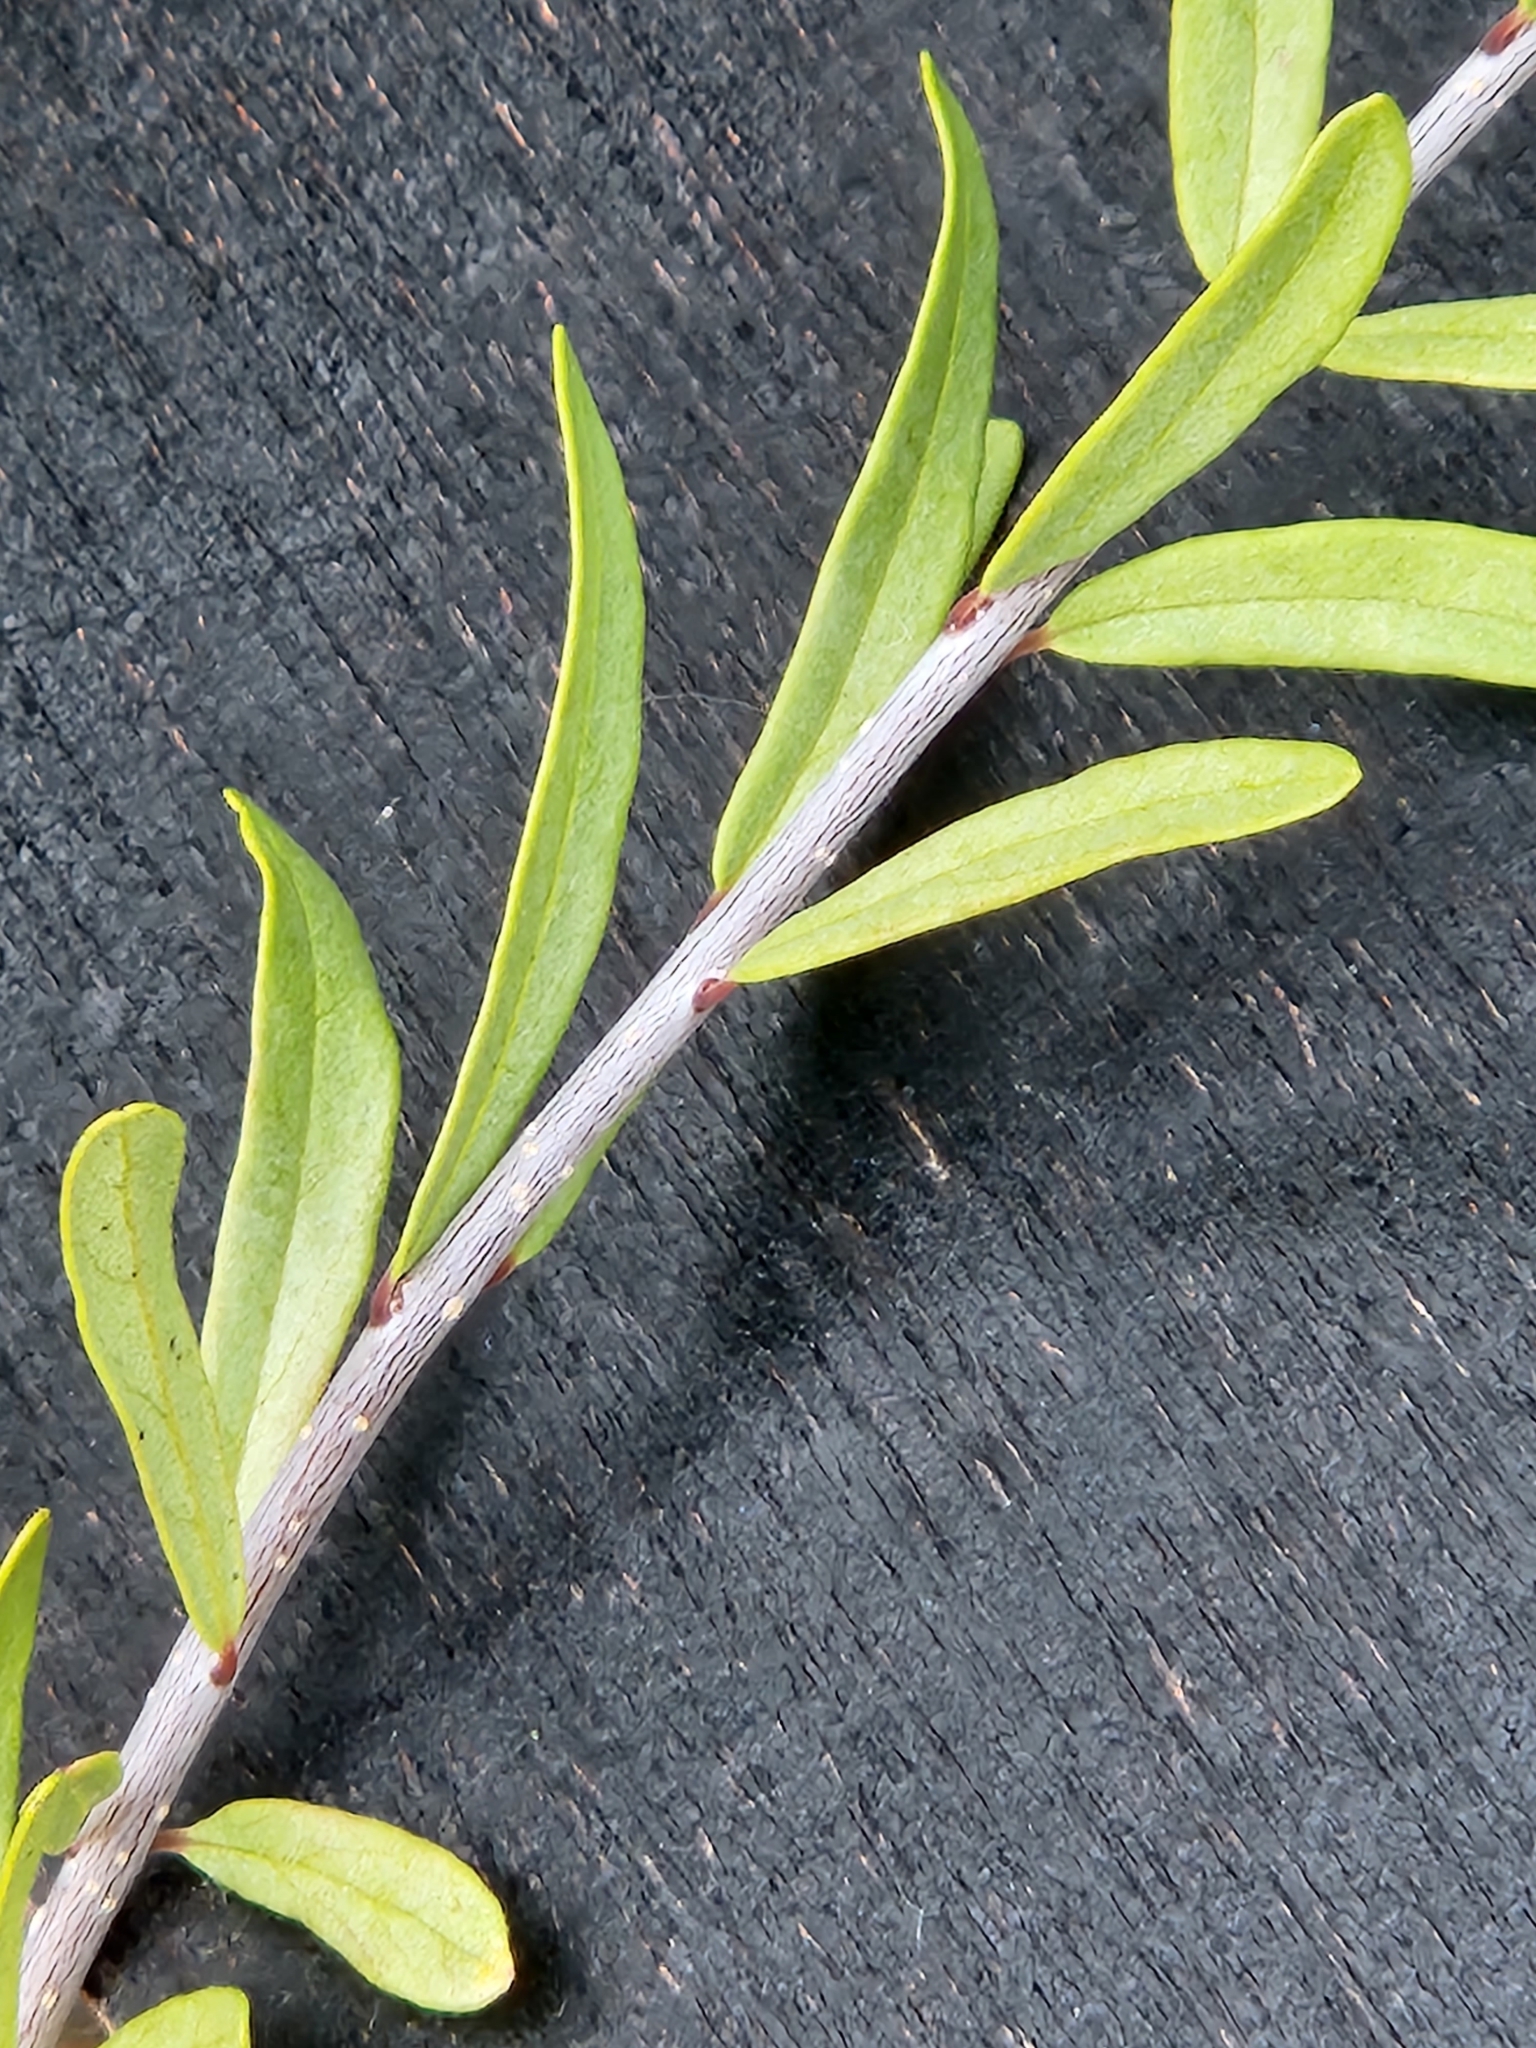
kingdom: Plantae
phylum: Tracheophyta
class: Magnoliopsida
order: Lamiales
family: Oleaceae
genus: Forestiera
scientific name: Forestiera angustifolia
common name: Elbowbush
